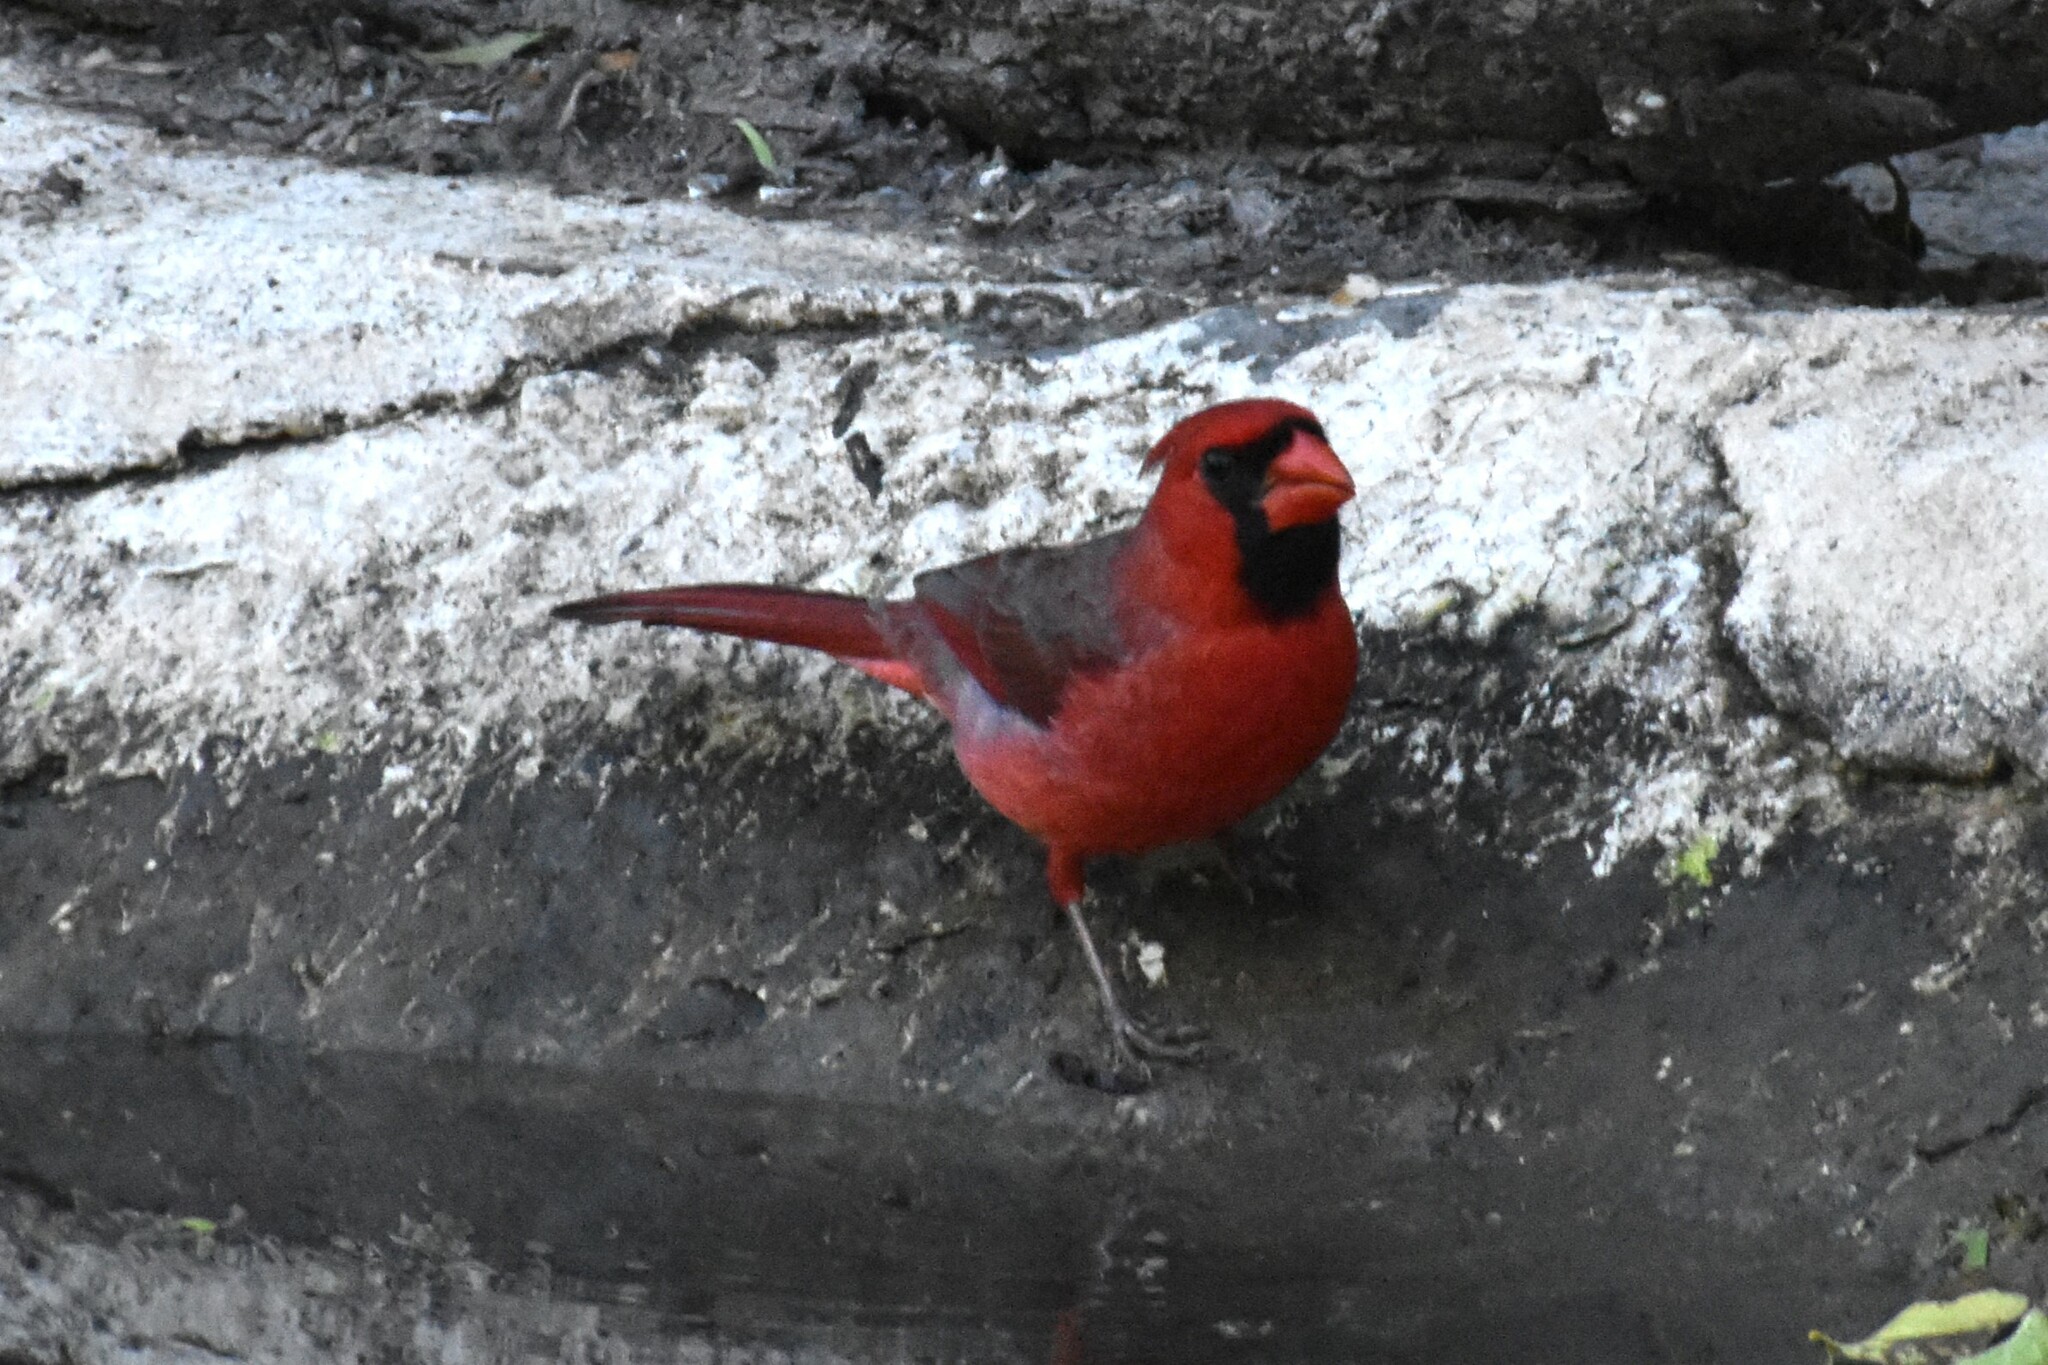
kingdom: Animalia
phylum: Chordata
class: Aves
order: Passeriformes
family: Cardinalidae
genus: Cardinalis
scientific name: Cardinalis cardinalis
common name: Northern cardinal
